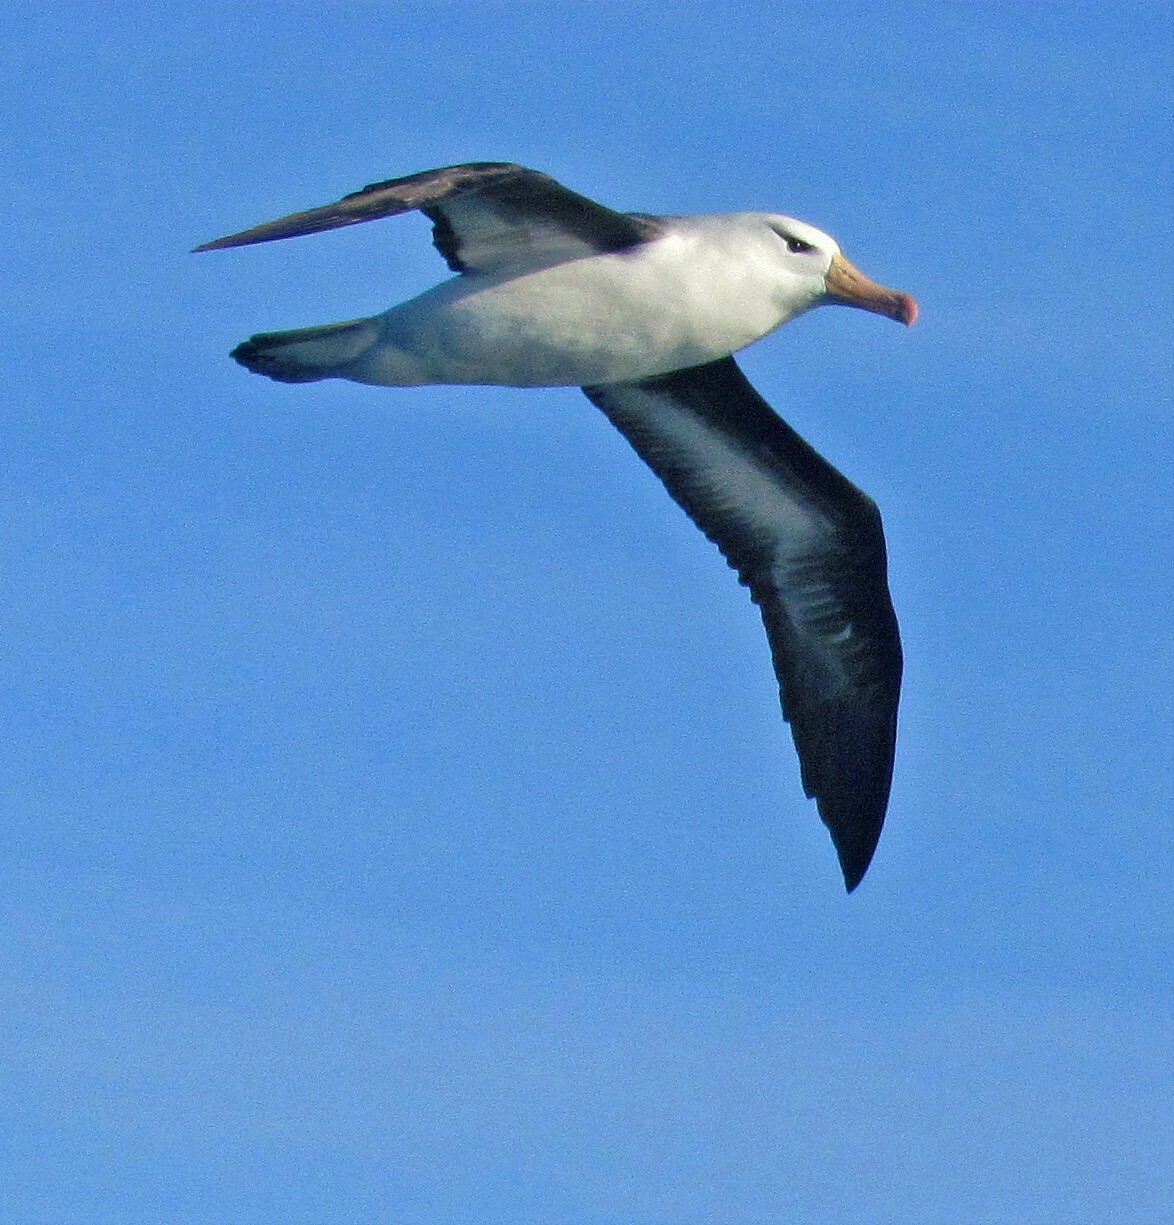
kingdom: Animalia
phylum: Chordata
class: Aves
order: Procellariiformes
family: Diomedeidae
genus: Thalassarche
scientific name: Thalassarche melanophris
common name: Black-browed albatross
